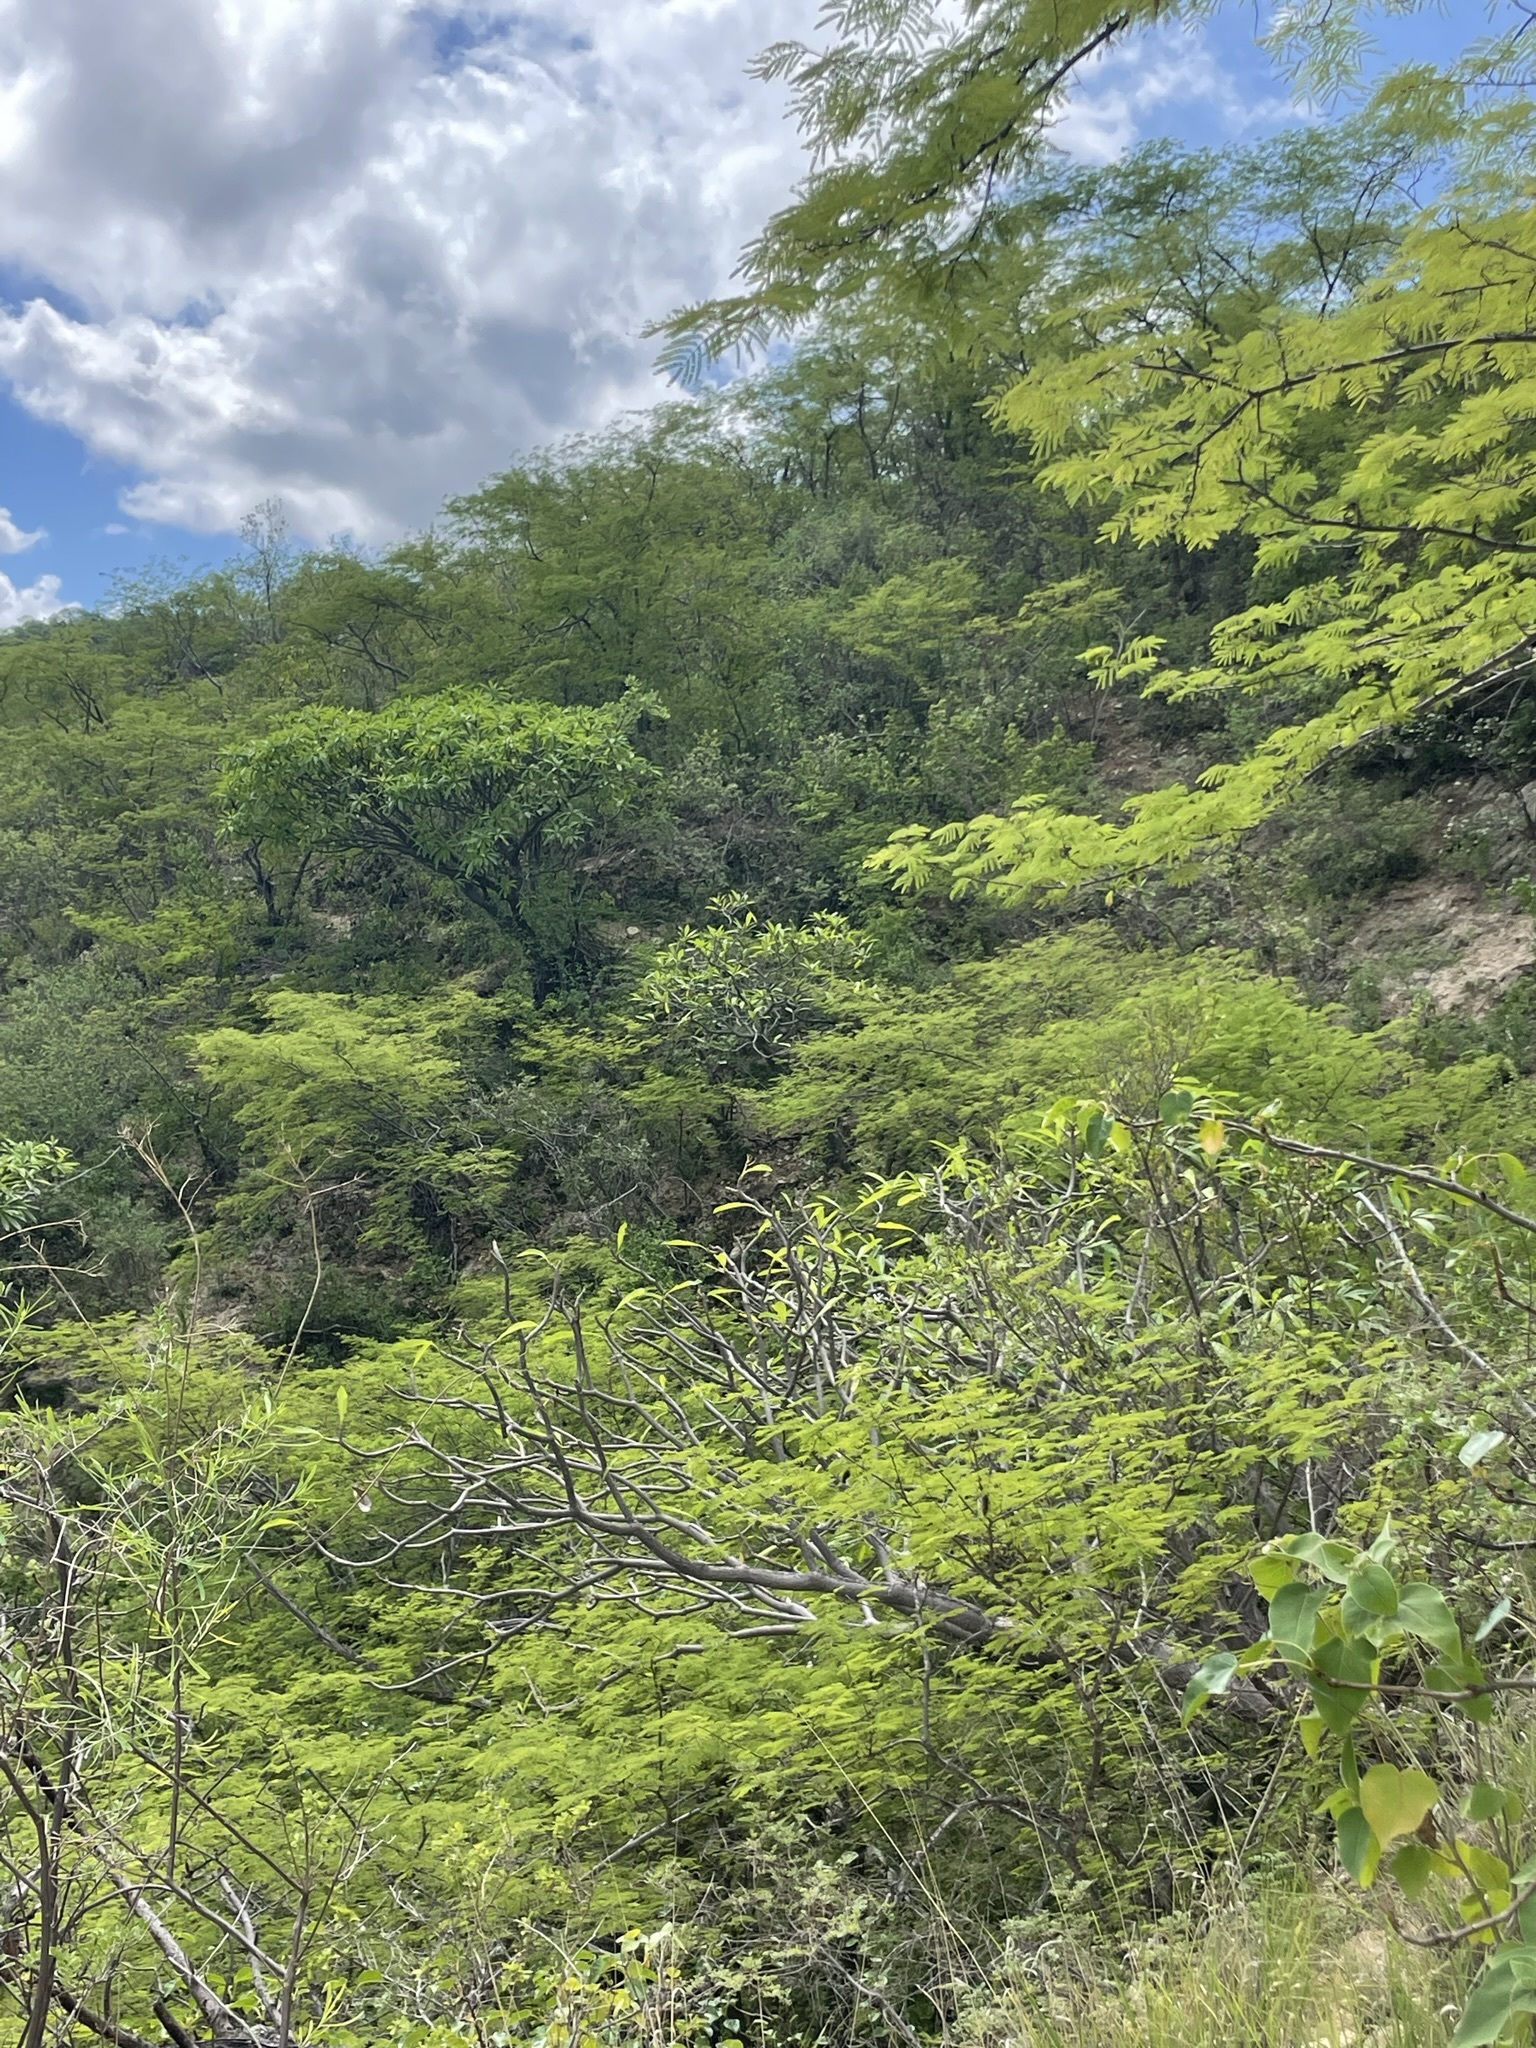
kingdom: Plantae
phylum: Tracheophyta
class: Magnoliopsida
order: Gentianales
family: Apocynaceae
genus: Plumeria
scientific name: Plumeria rubra
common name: Pagoda-tree
